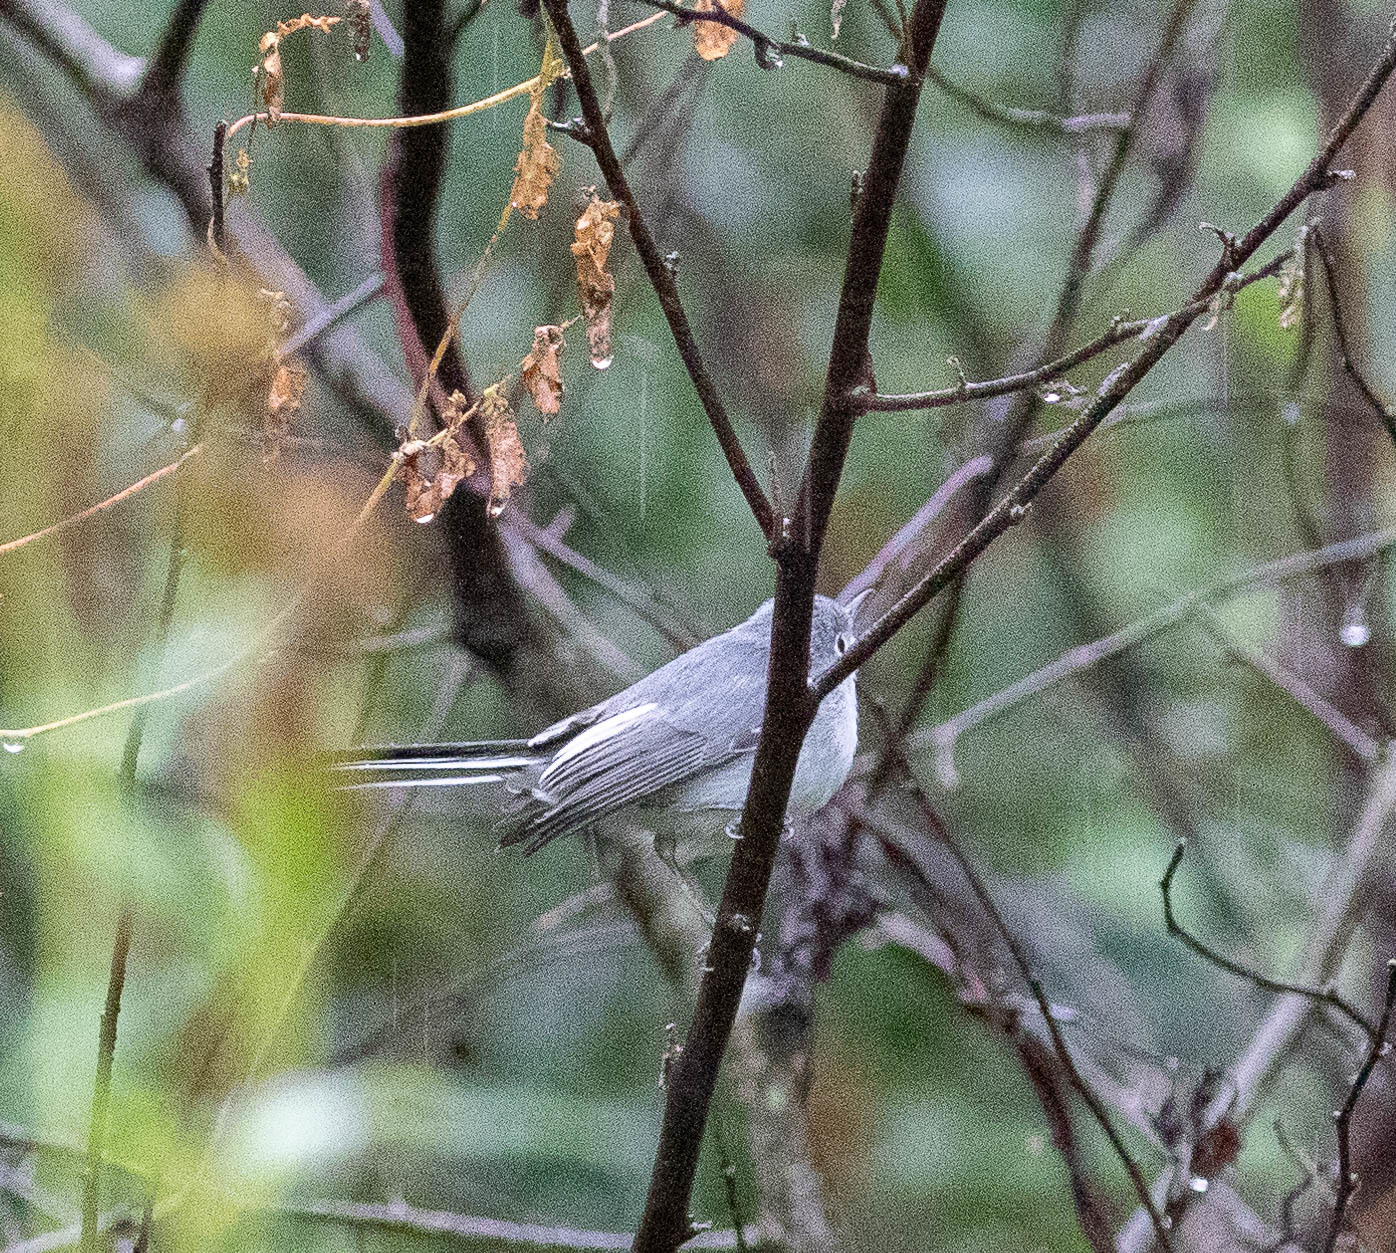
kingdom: Animalia
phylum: Chordata
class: Aves
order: Passeriformes
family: Polioptilidae
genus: Polioptila
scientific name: Polioptila caerulea
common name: Blue-gray gnatcatcher
